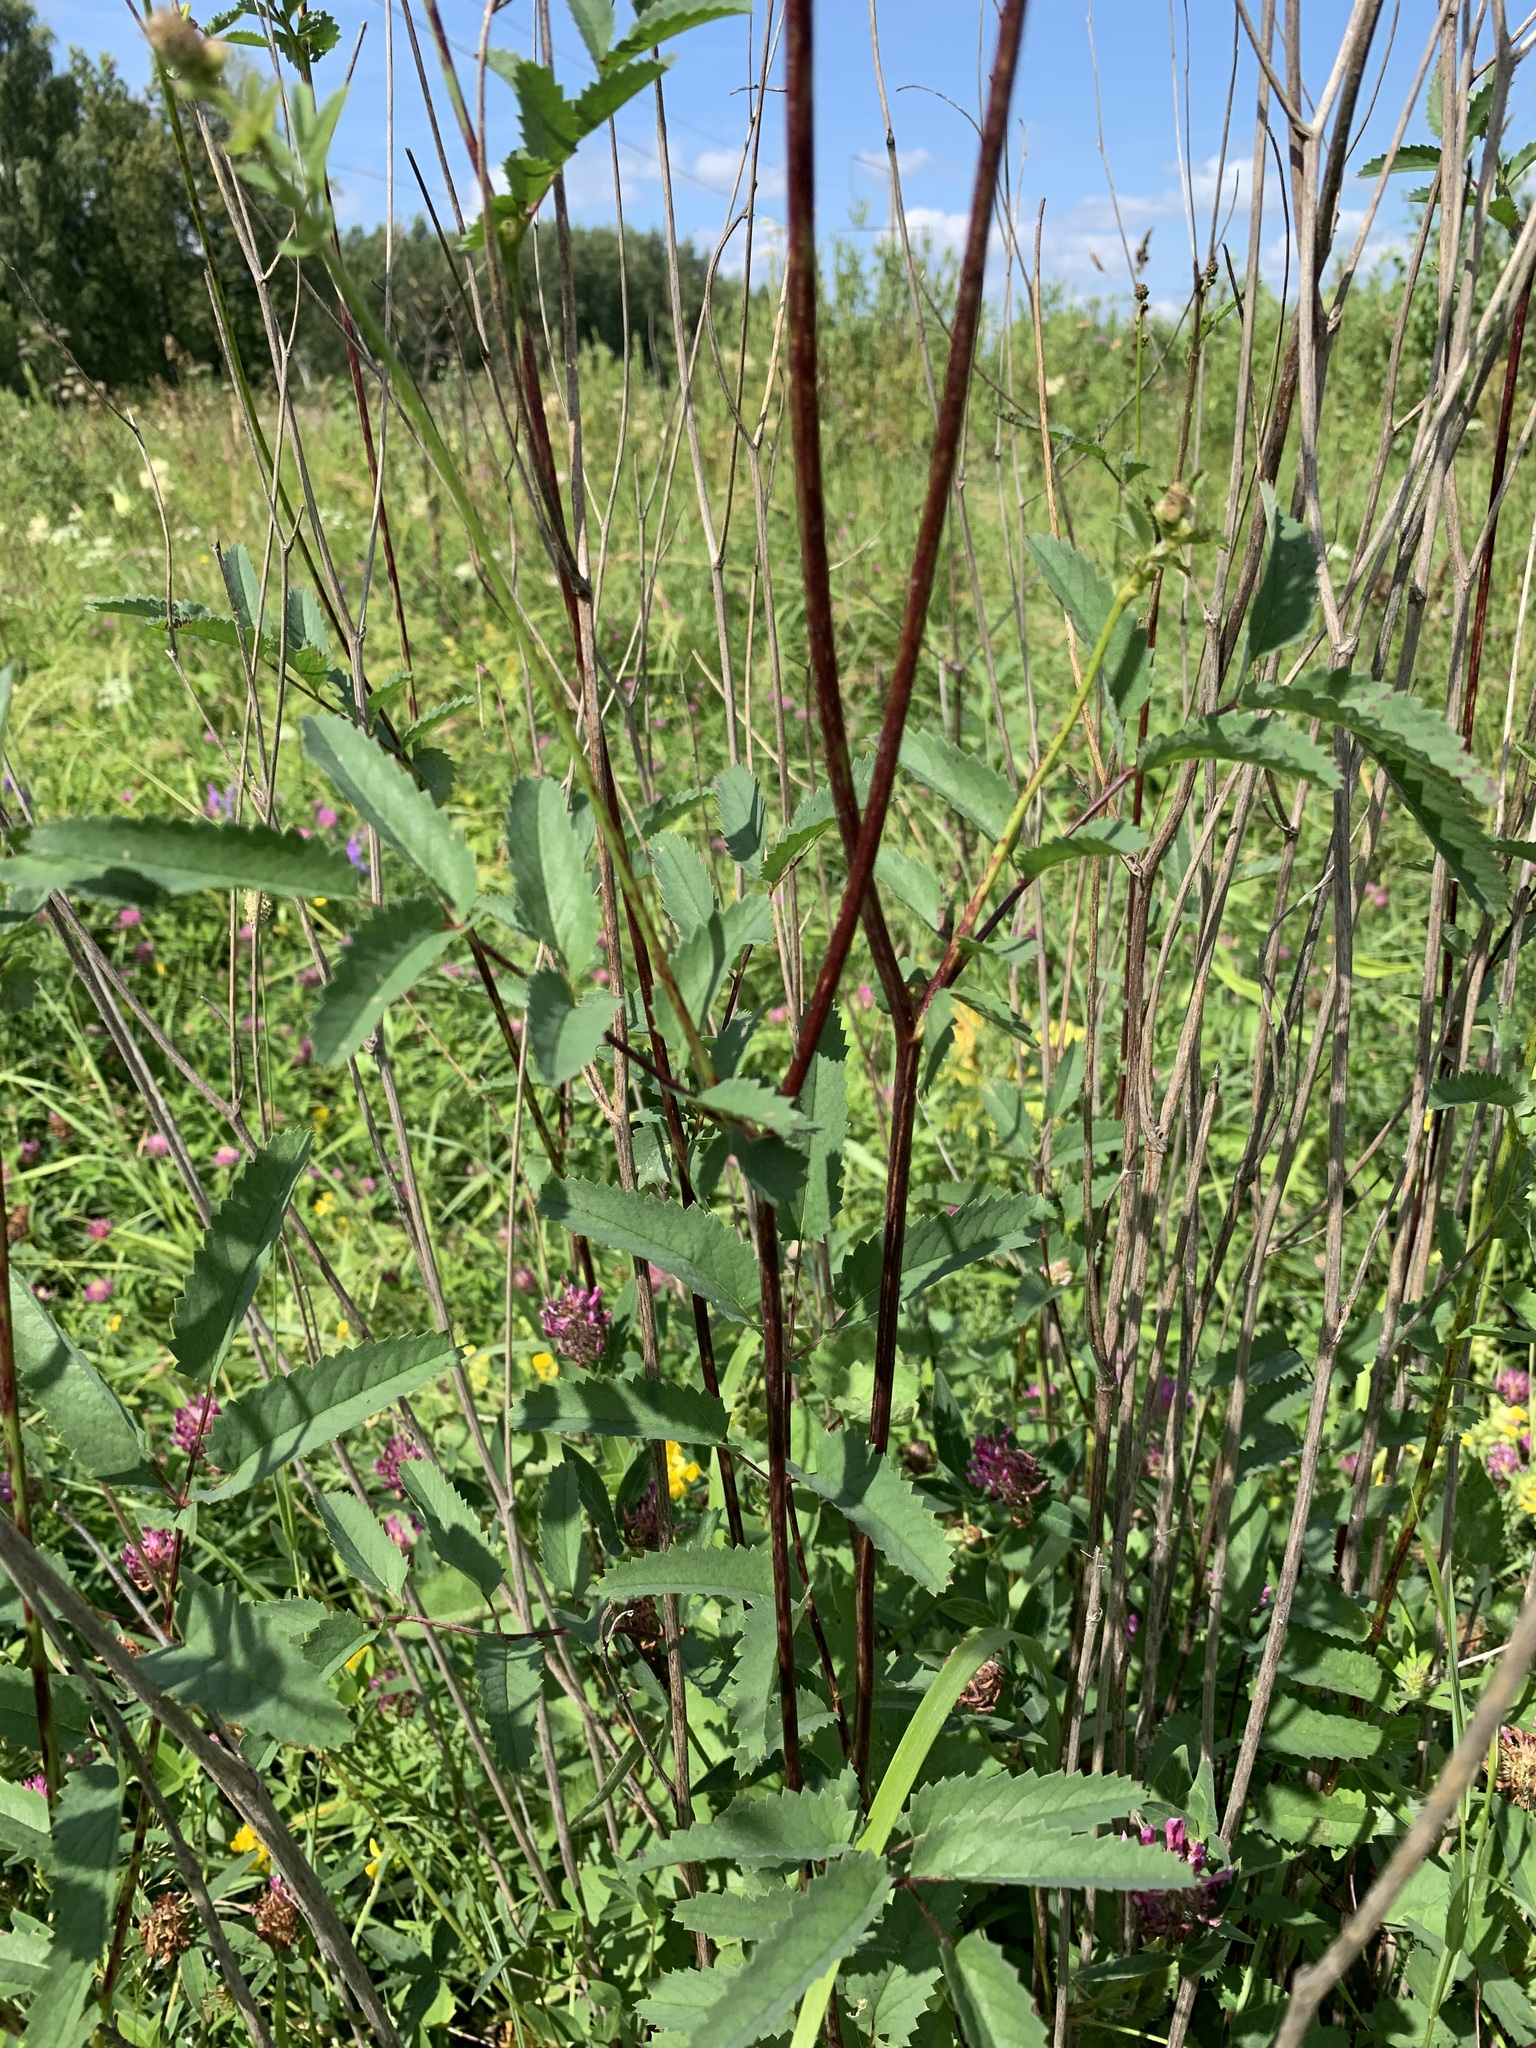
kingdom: Plantae
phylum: Tracheophyta
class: Magnoliopsida
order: Rosales
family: Rosaceae
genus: Sanguisorba
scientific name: Sanguisorba officinalis
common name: Great burnet
